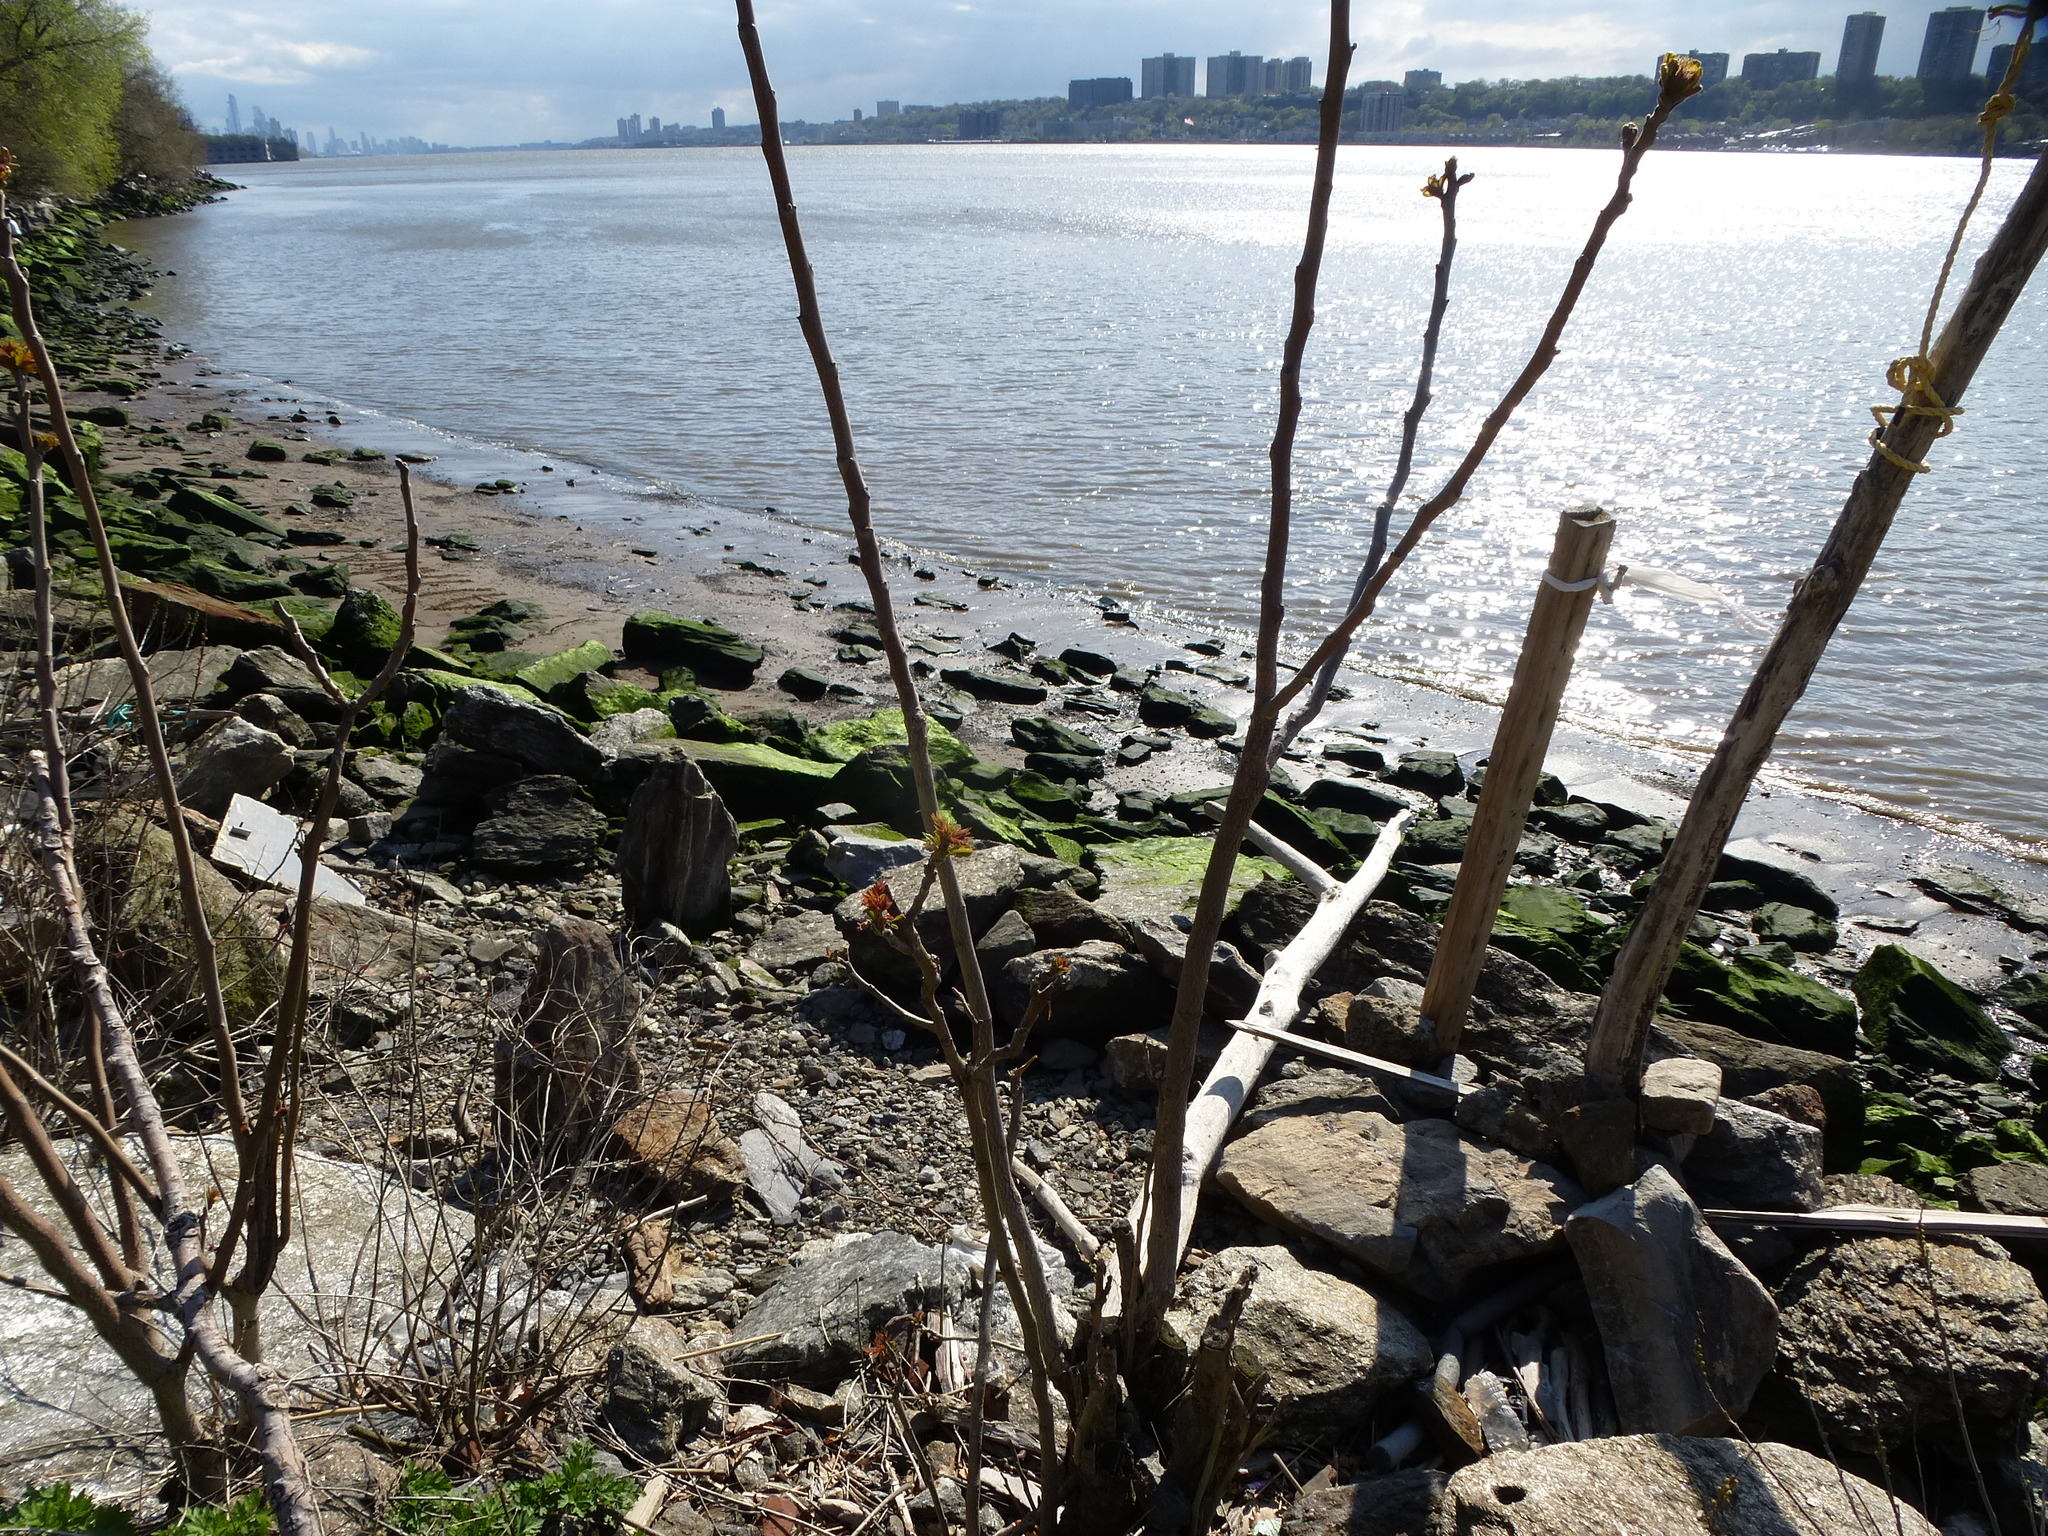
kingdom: Plantae
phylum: Tracheophyta
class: Magnoliopsida
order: Sapindales
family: Simaroubaceae
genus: Ailanthus
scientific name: Ailanthus altissima
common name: Tree-of-heaven
